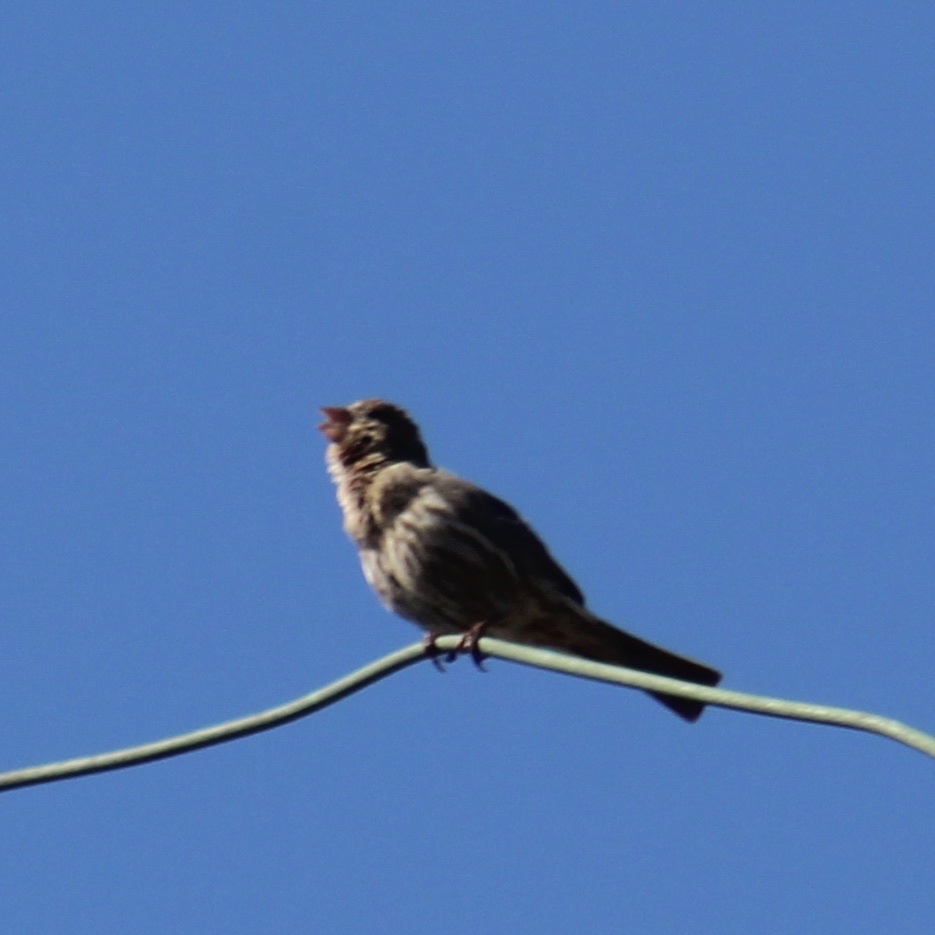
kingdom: Animalia
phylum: Chordata
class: Aves
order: Passeriformes
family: Fringillidae
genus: Haemorhous
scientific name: Haemorhous mexicanus
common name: House finch
